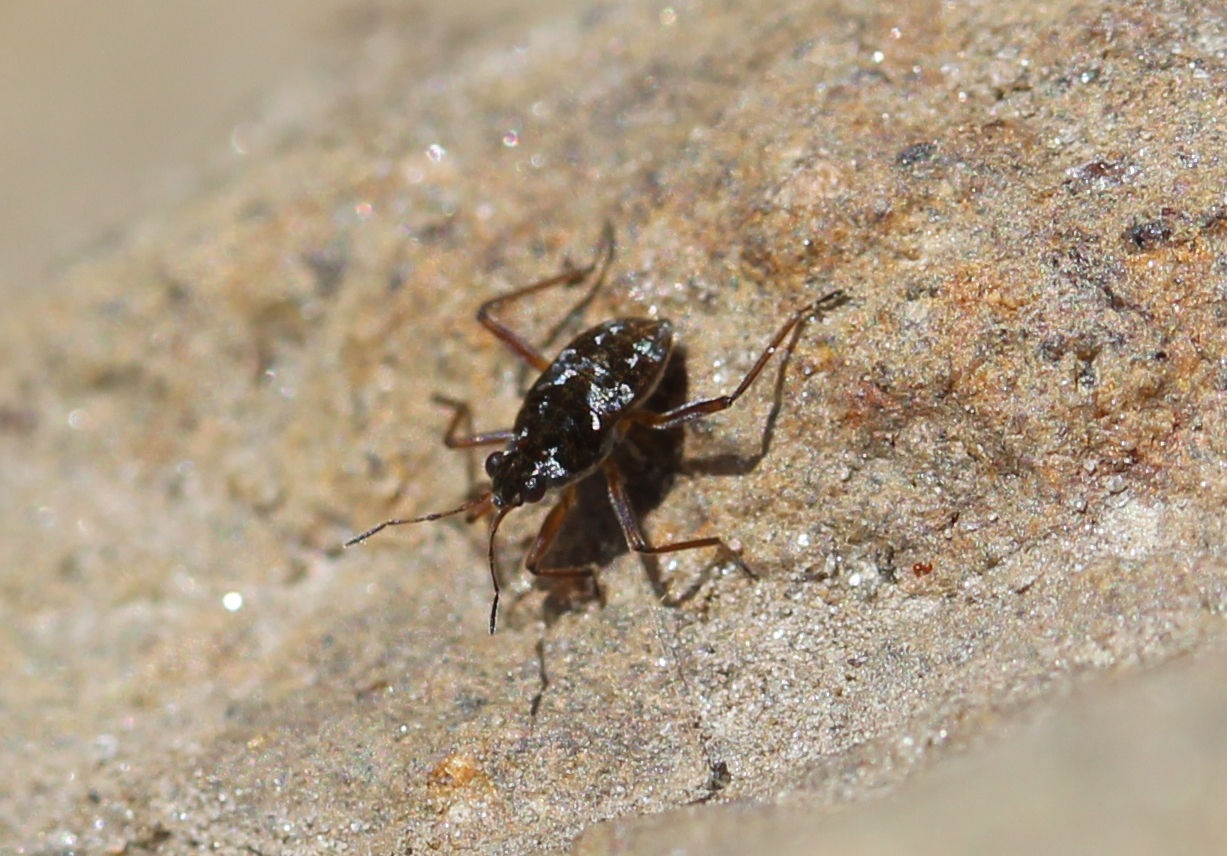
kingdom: Animalia
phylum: Arthropoda
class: Insecta
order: Hemiptera
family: Veliidae
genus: Microvelia
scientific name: Microvelia americana
